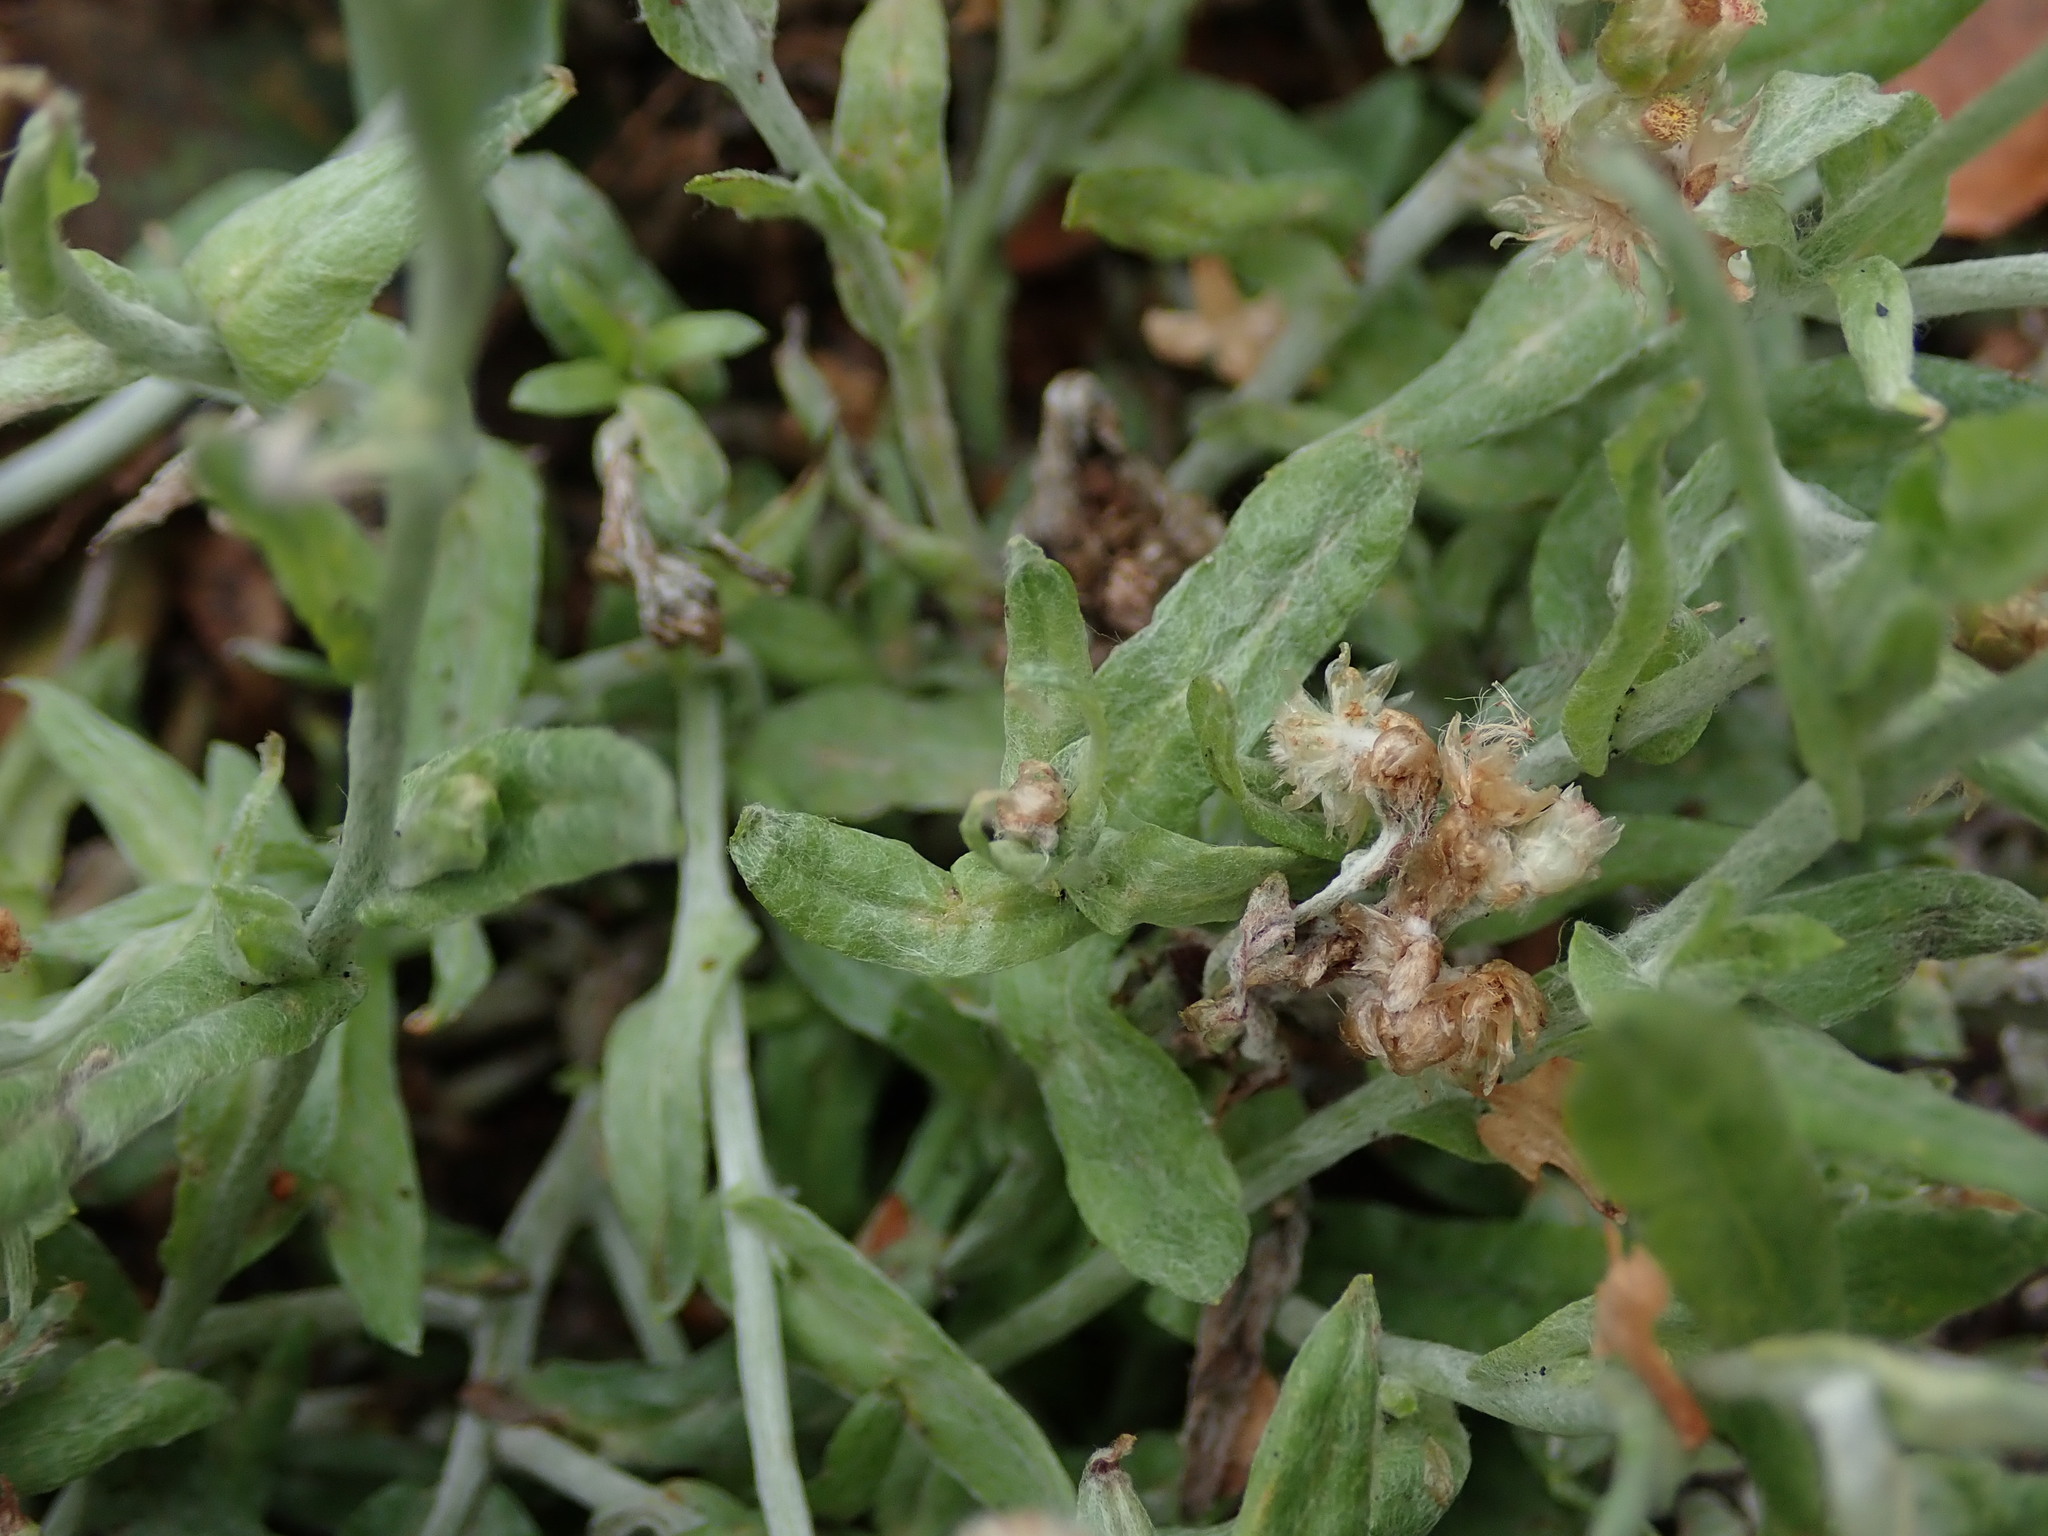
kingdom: Plantae
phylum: Tracheophyta
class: Magnoliopsida
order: Asterales
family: Asteraceae
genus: Helichrysum
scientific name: Helichrysum luteoalbum
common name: Daisy
